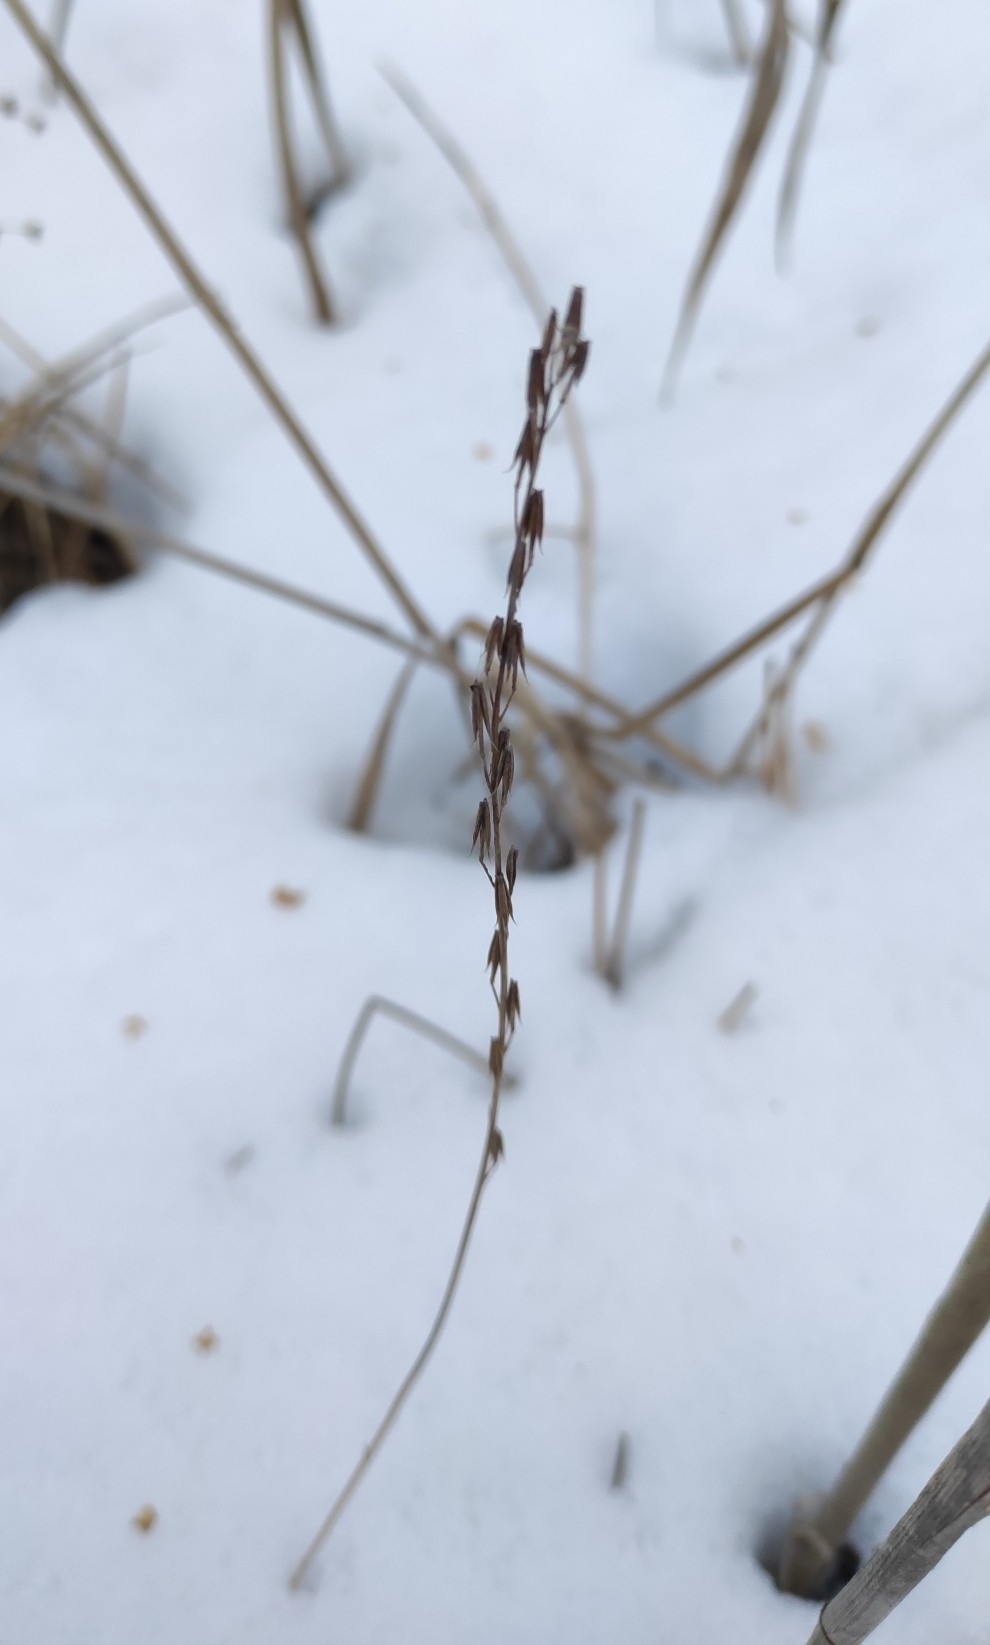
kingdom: Plantae
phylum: Tracheophyta
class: Liliopsida
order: Alismatales
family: Juncaginaceae
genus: Triglochin
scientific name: Triglochin palustris
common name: Marsh arrowgrass
